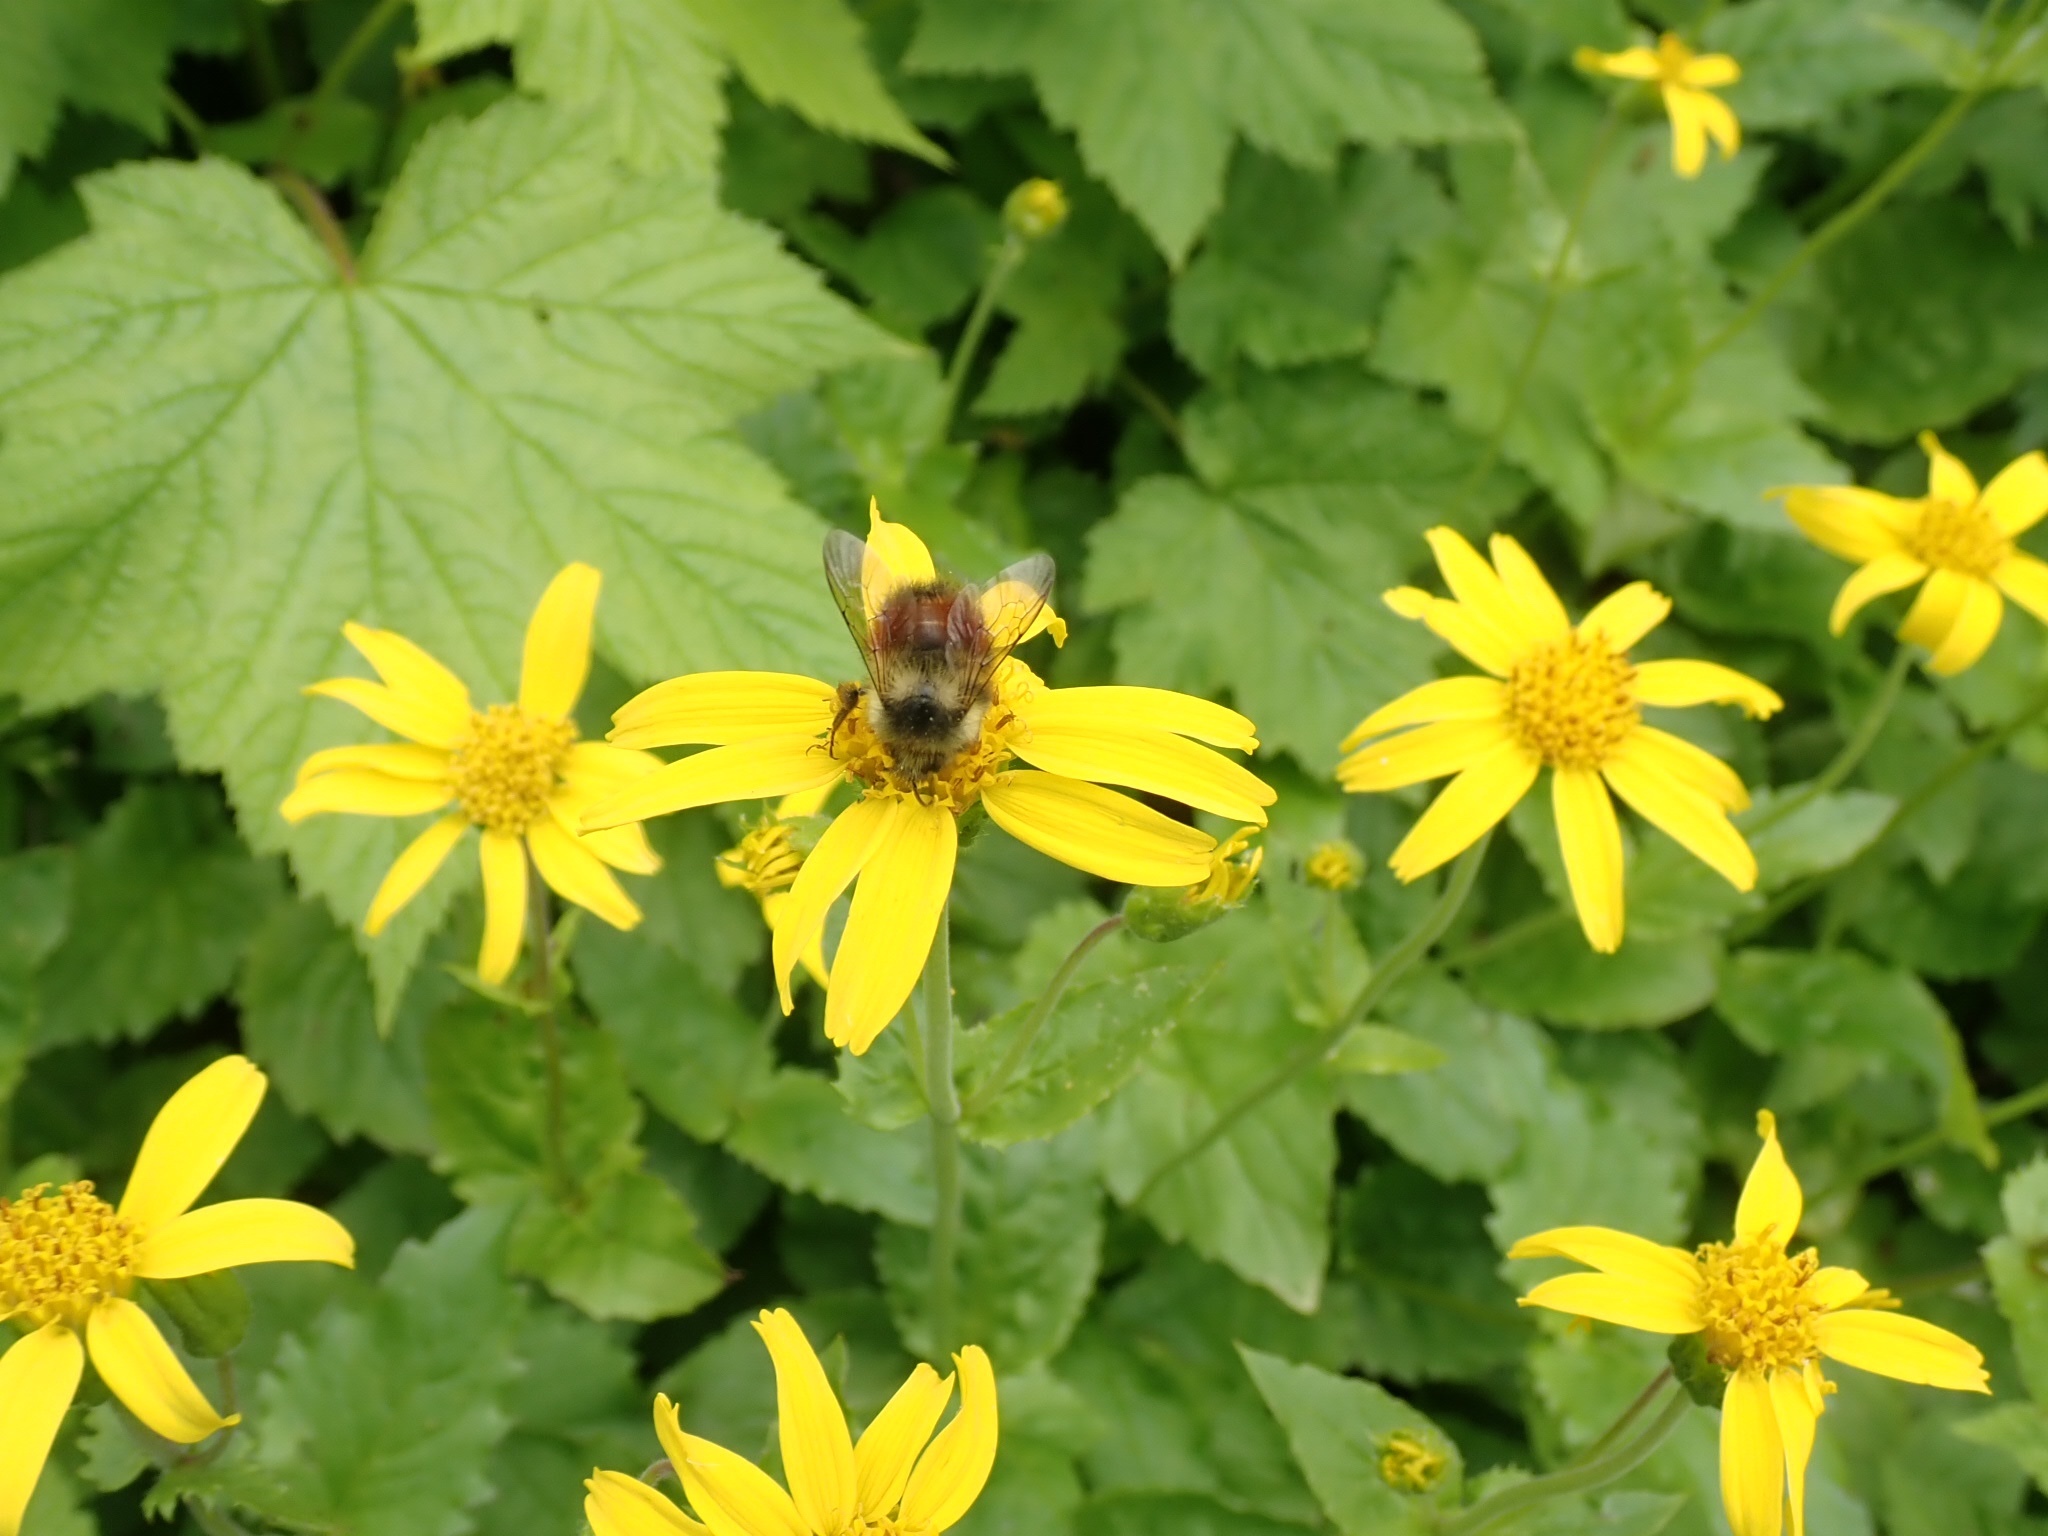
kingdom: Animalia
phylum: Arthropoda
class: Insecta
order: Hymenoptera
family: Apidae
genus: Bombus
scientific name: Bombus melanopygus
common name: Black tail bumble bee
